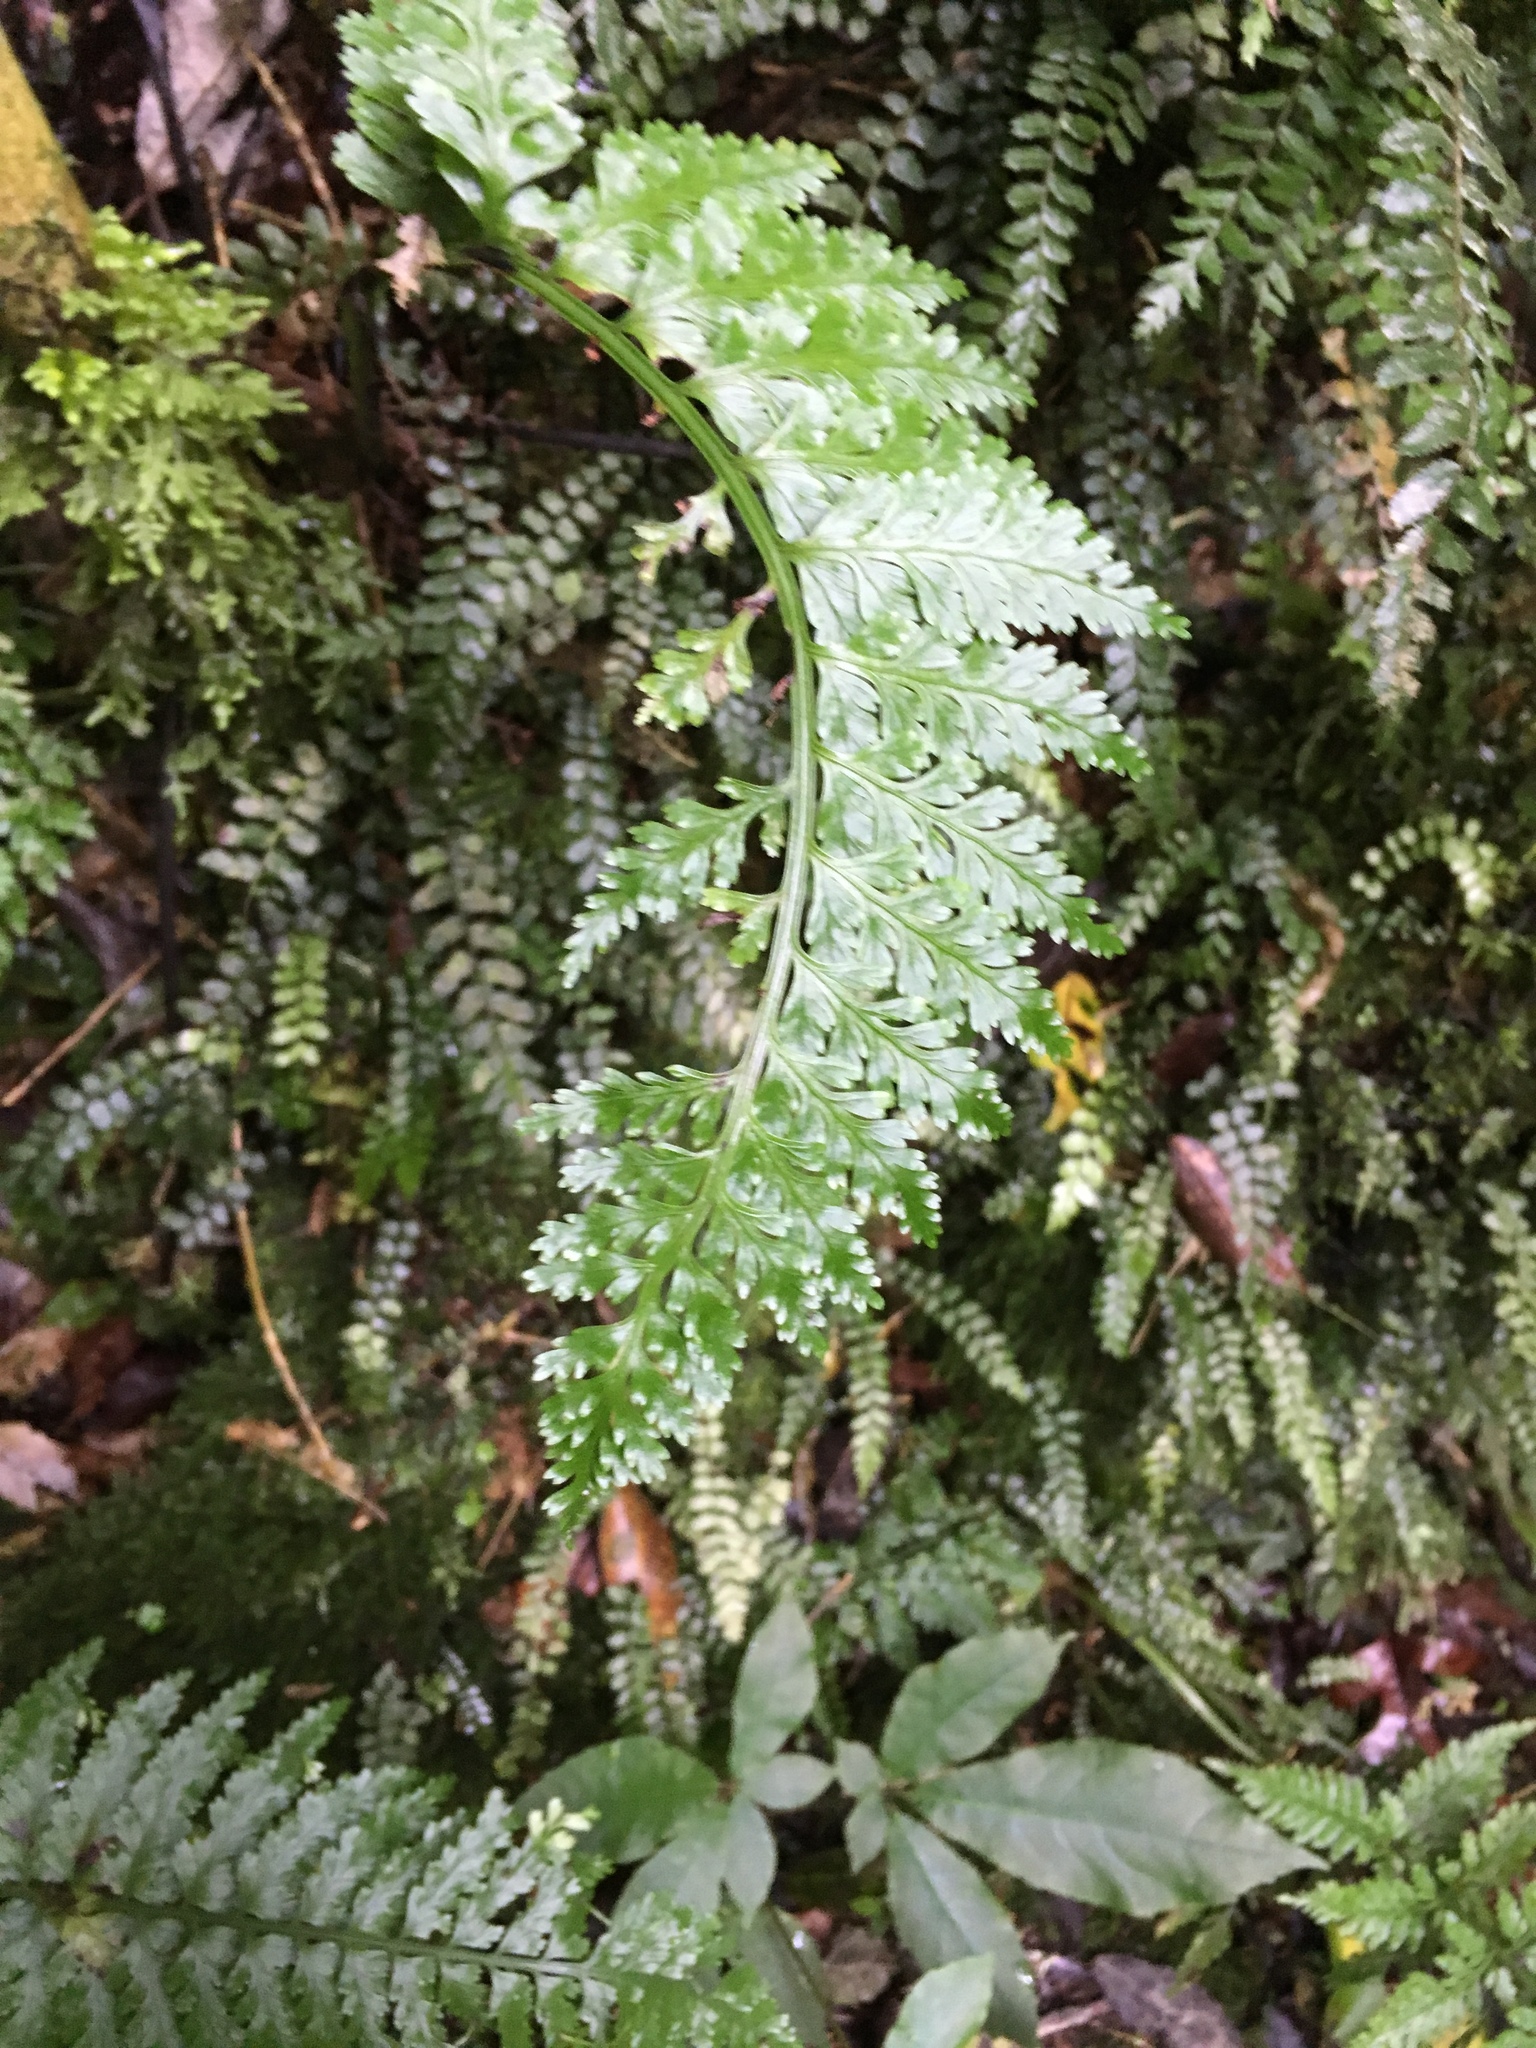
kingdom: Plantae
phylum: Tracheophyta
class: Polypodiopsida
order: Polypodiales
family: Aspleniaceae
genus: Asplenium
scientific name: Asplenium bulbiferum
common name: Mother fern
